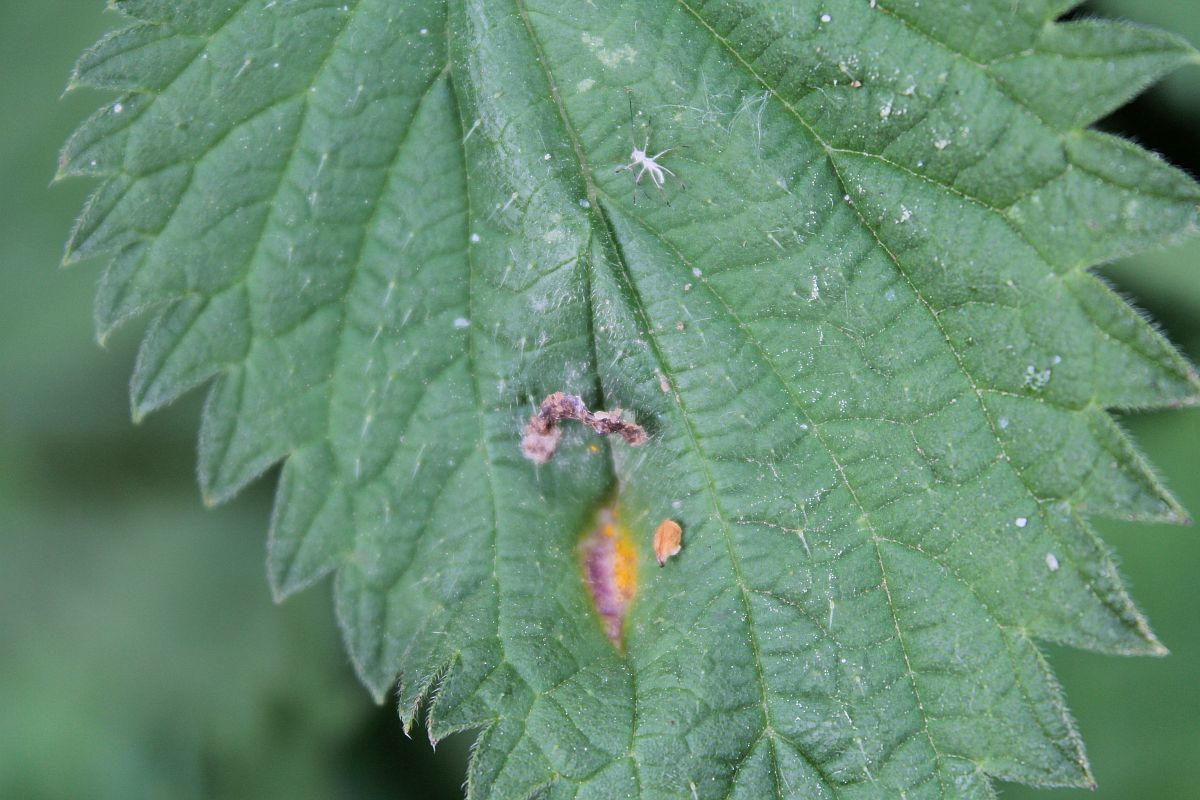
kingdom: Fungi
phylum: Basidiomycota
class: Pucciniomycetes
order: Pucciniales
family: Pucciniaceae
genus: Puccinia
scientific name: Puccinia urticata
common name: Nettle clustercup rust fungus
